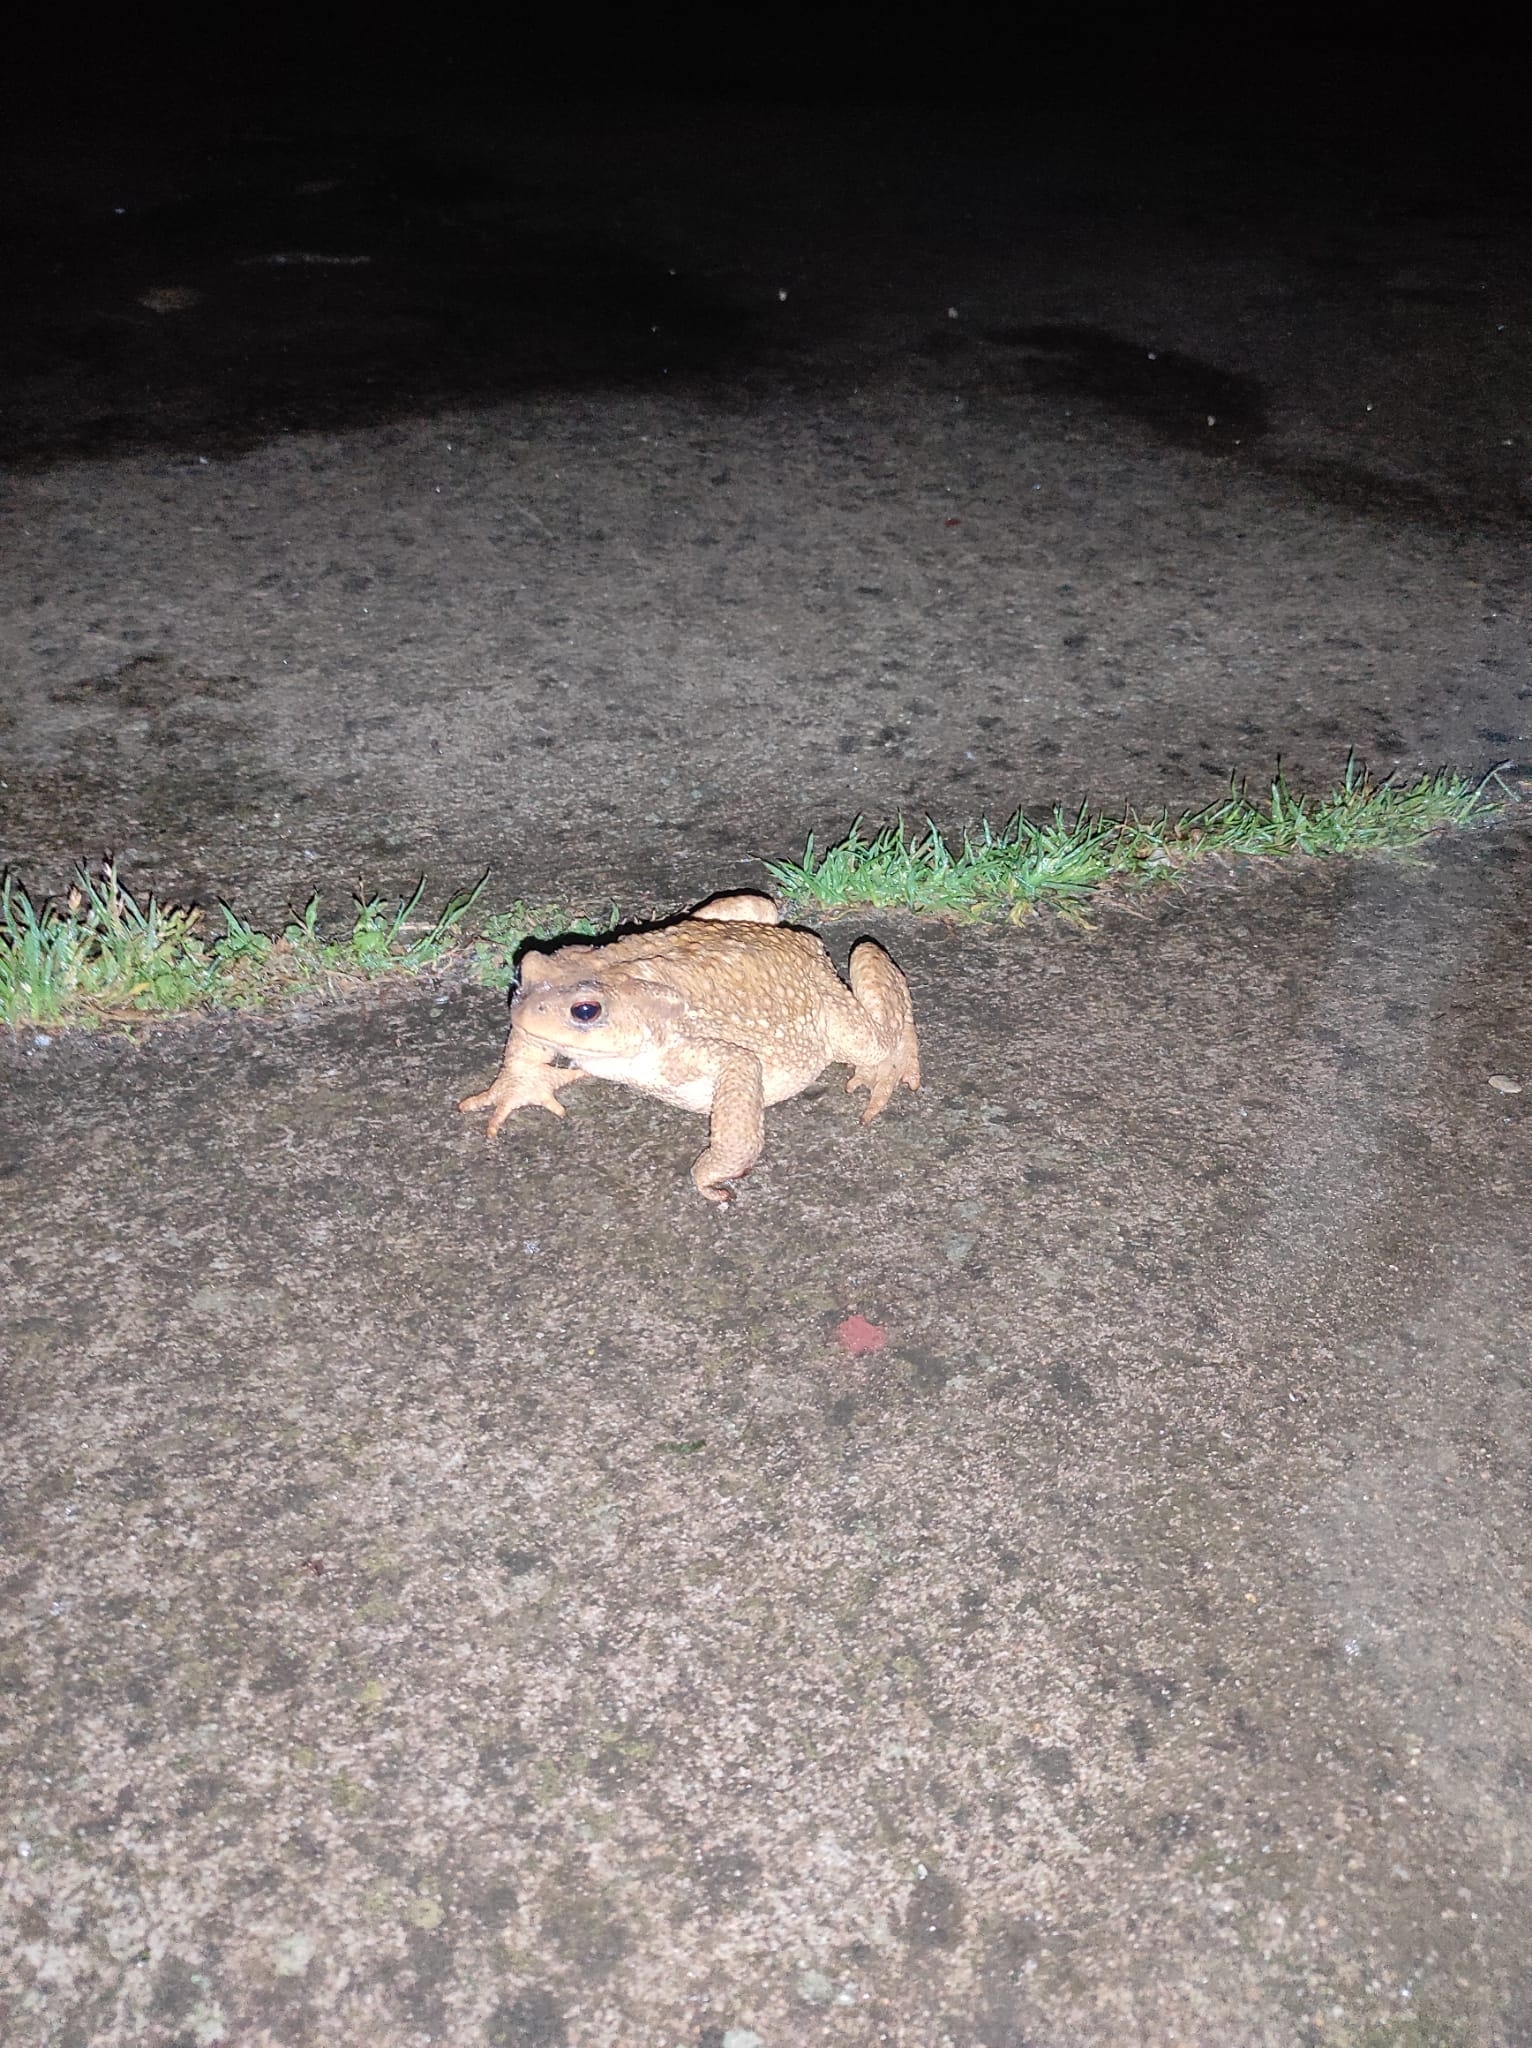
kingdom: Animalia
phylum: Chordata
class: Amphibia
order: Anura
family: Bufonidae
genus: Bufo
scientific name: Bufo spinosus
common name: Western common toad
